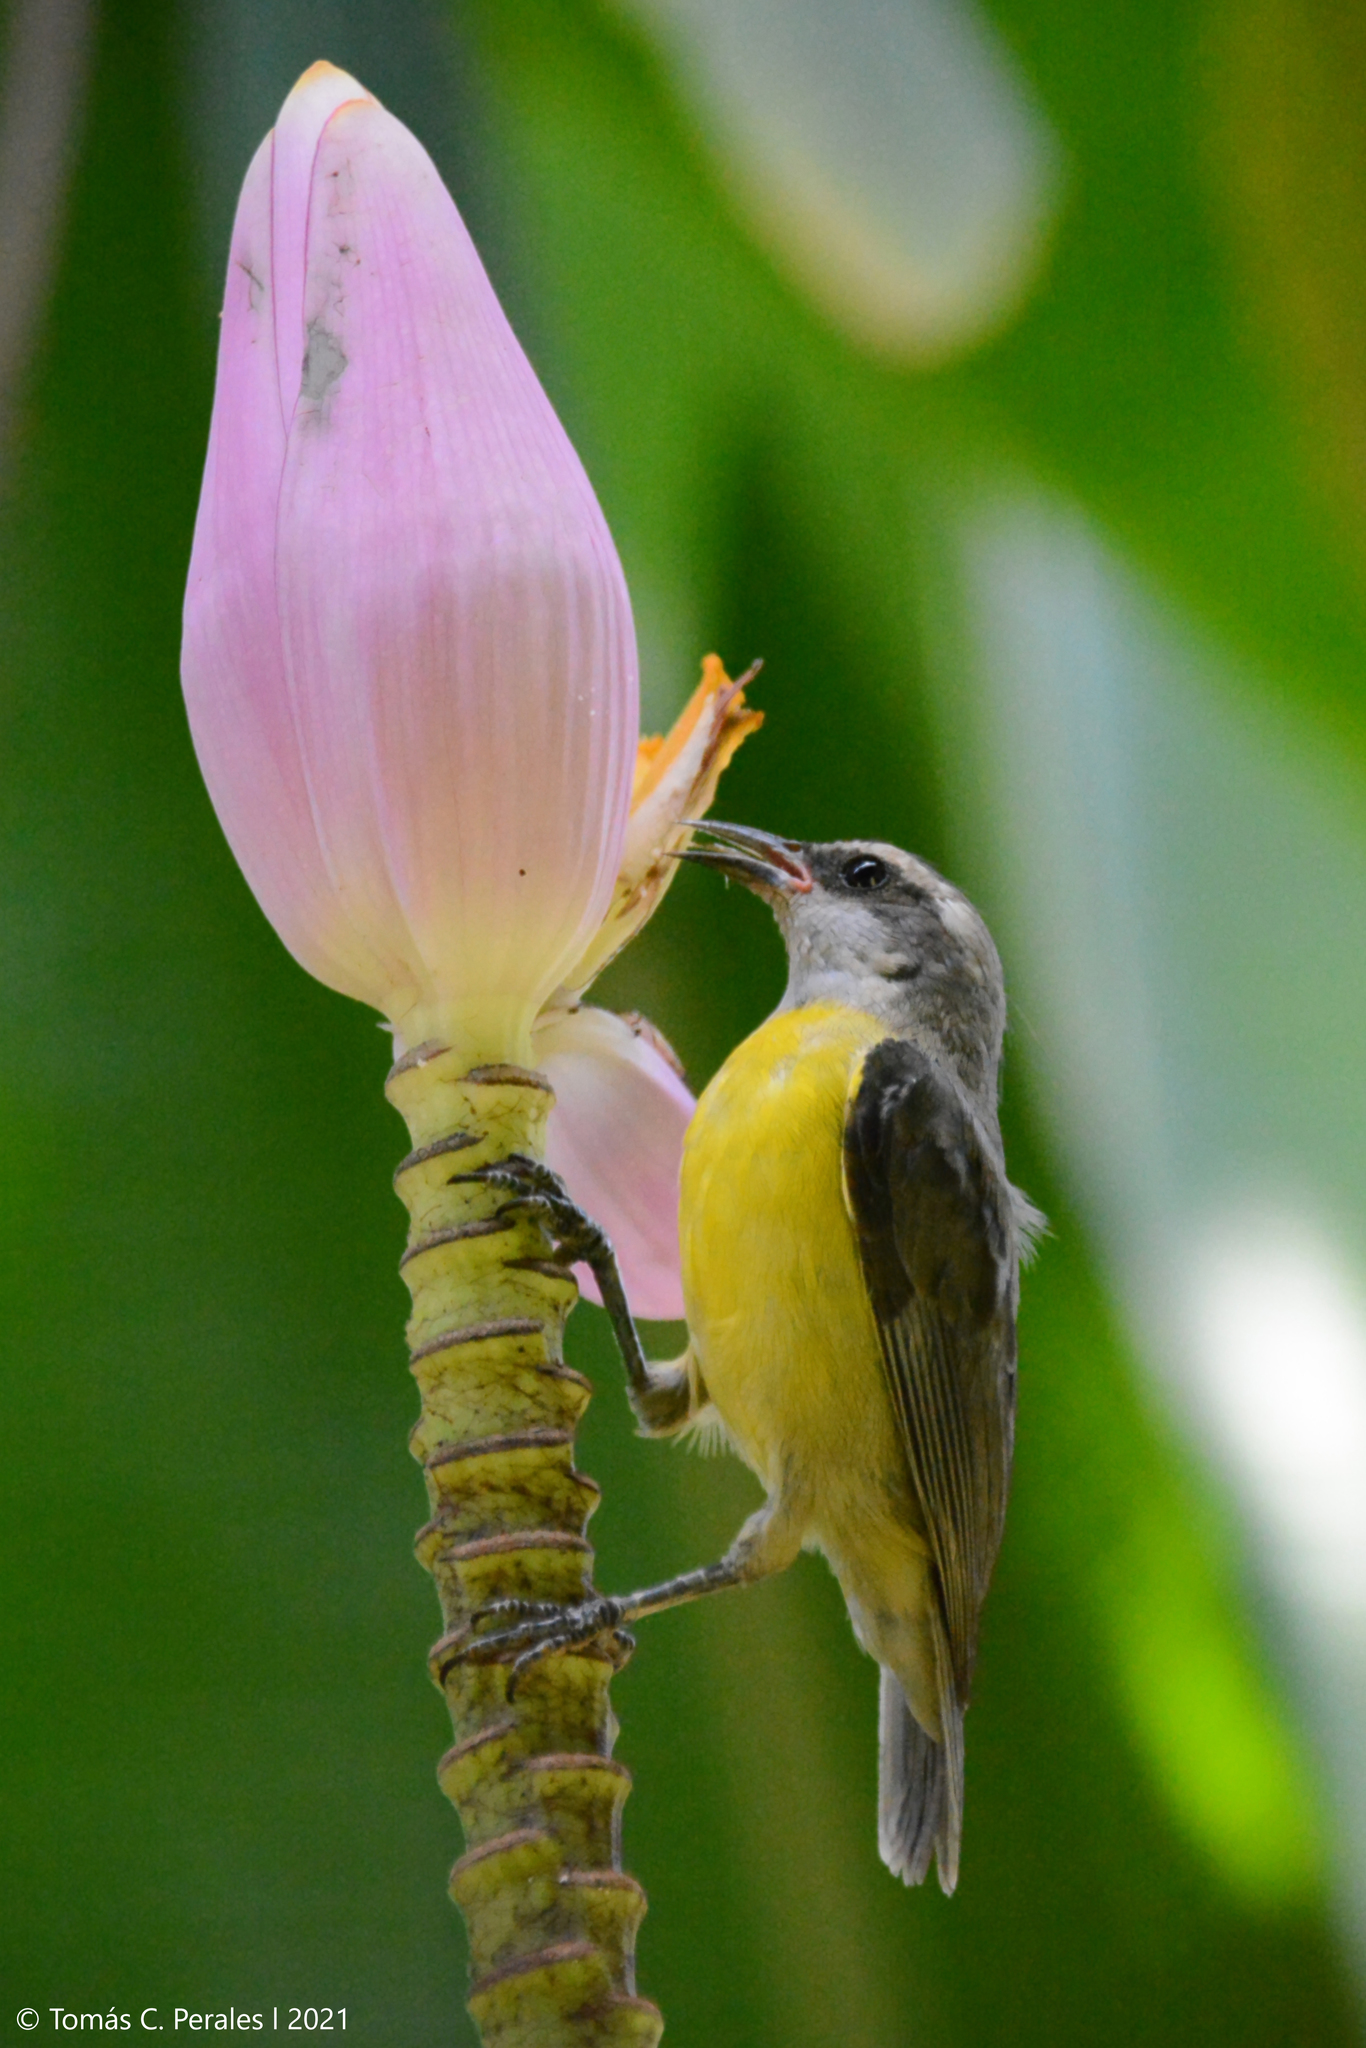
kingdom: Plantae
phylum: Tracheophyta
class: Liliopsida
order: Zingiberales
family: Musaceae
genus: Musa
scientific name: Musa ornata
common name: Flowering banana
